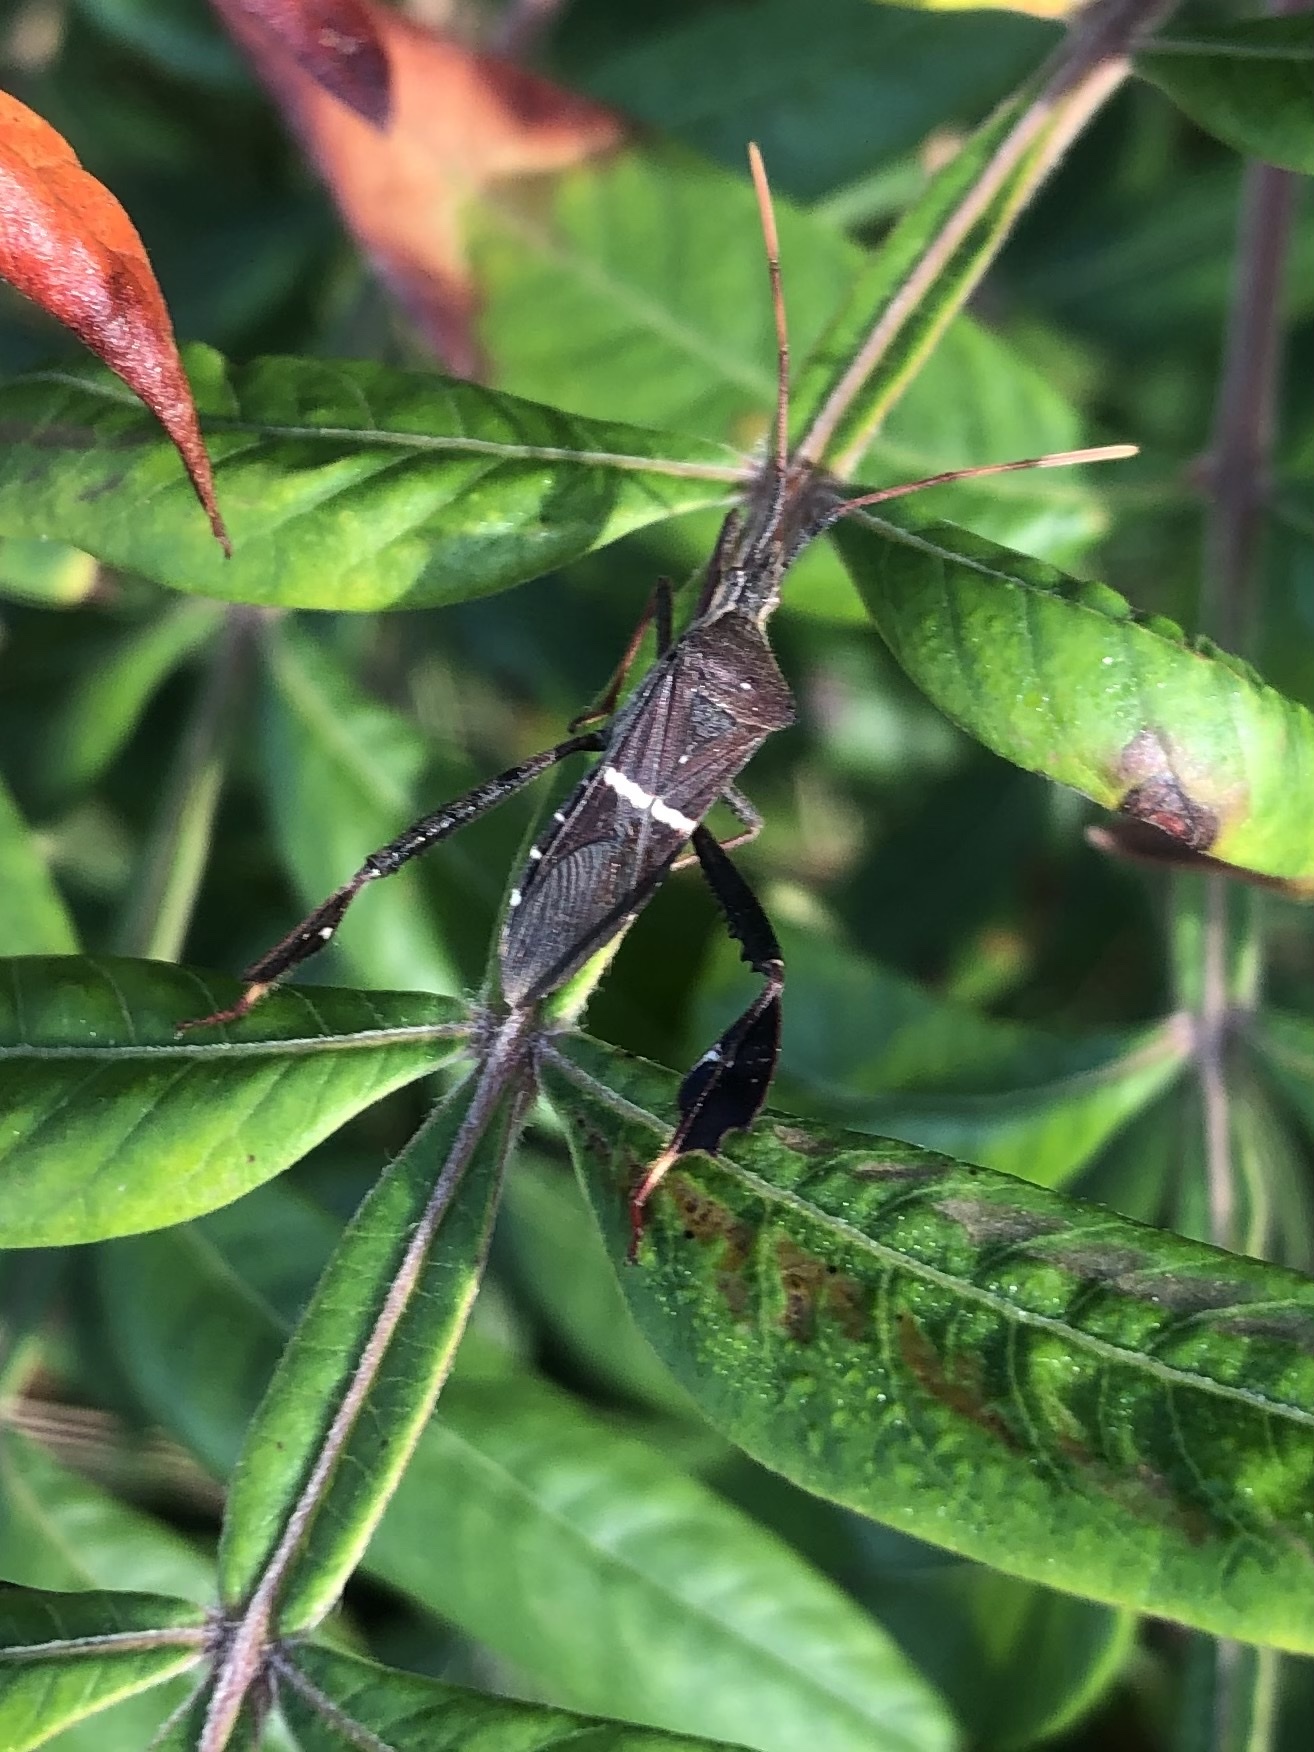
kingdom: Animalia
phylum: Arthropoda
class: Insecta
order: Hemiptera
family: Coreidae
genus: Leptoglossus
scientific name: Leptoglossus phyllopus
